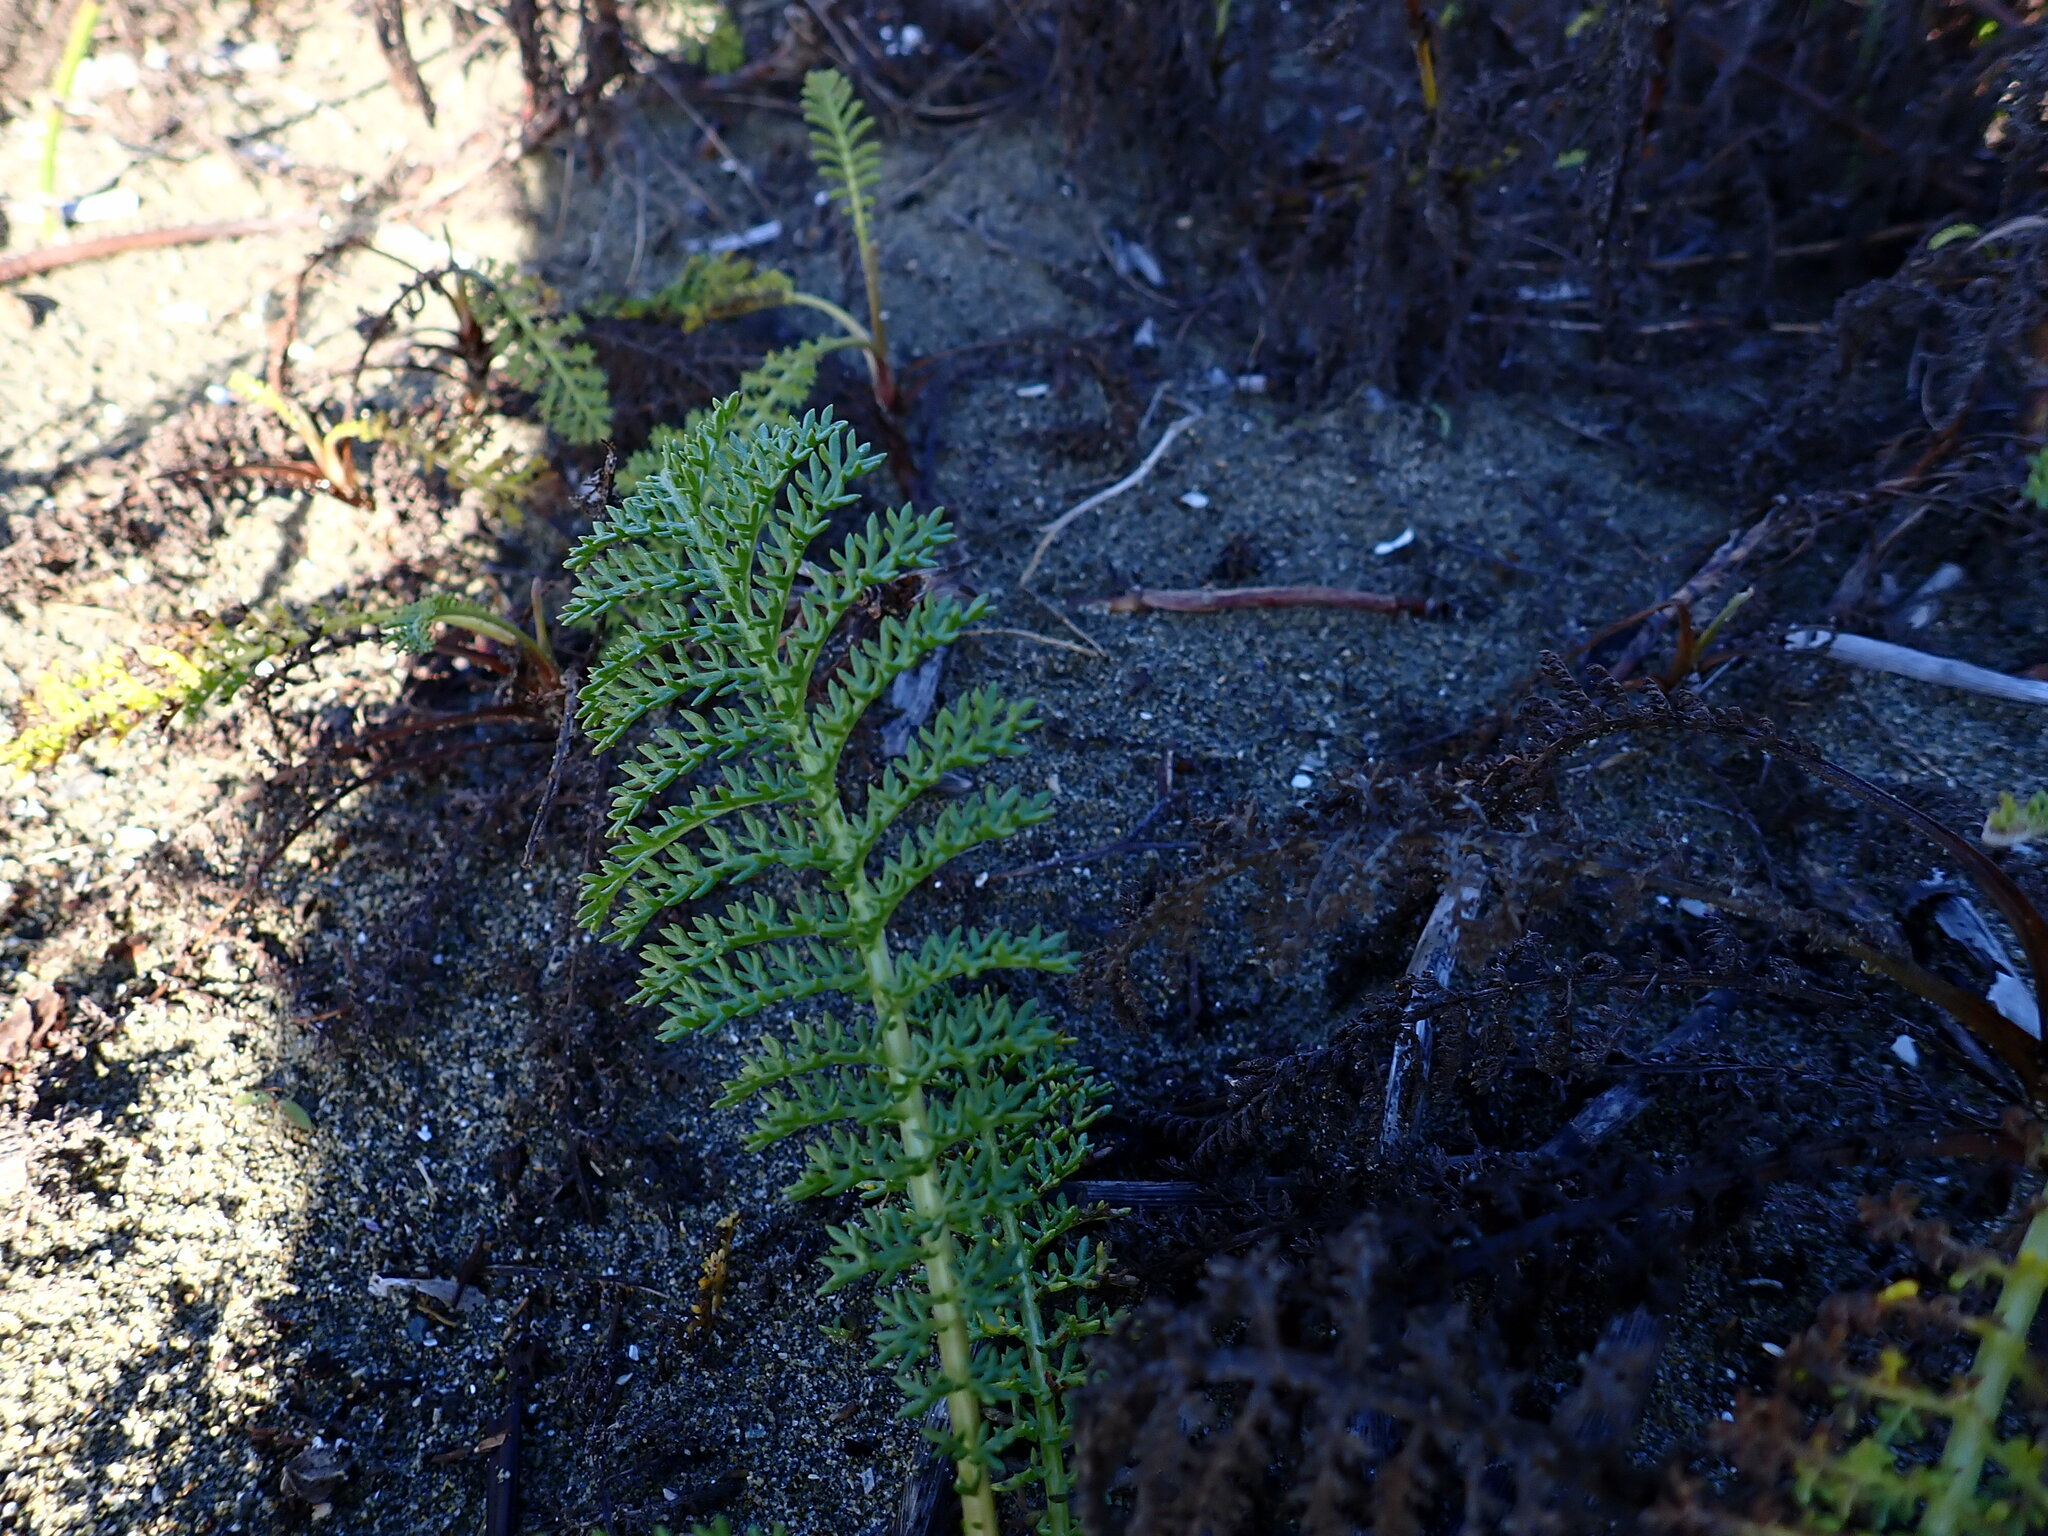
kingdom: Plantae
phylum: Tracheophyta
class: Magnoliopsida
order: Asterales
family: Asteraceae
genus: Tanacetum
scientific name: Tanacetum bipinnatum
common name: Dwarf tansy
